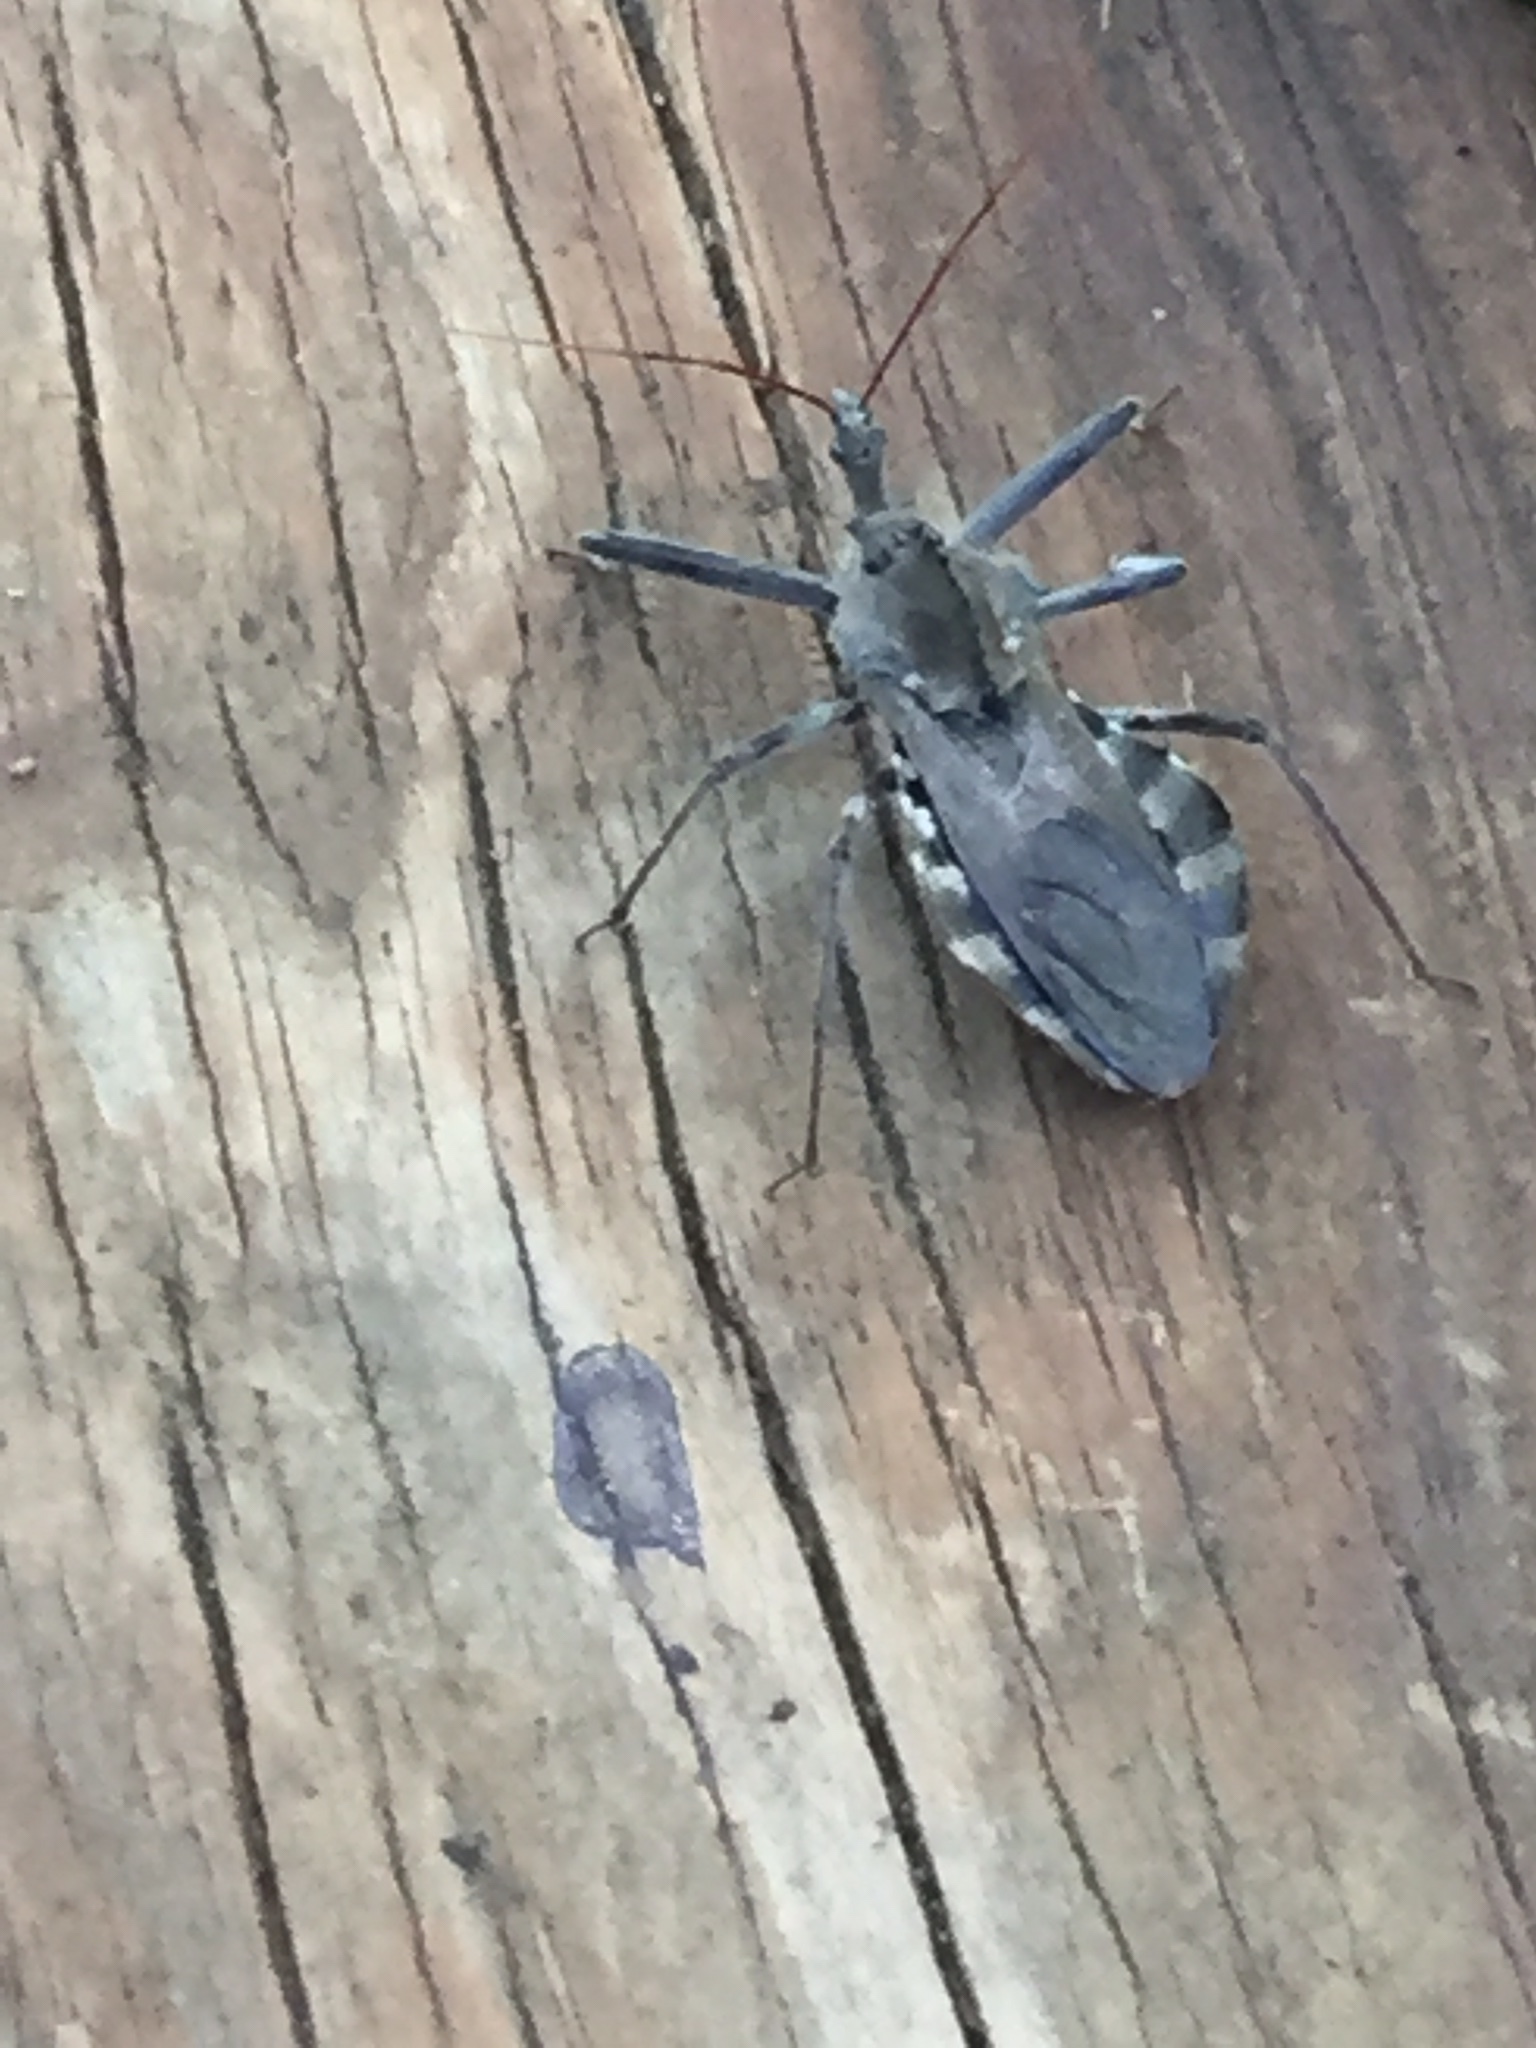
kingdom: Animalia
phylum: Arthropoda
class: Insecta
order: Hemiptera
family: Reduviidae
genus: Arilus
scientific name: Arilus cristatus
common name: North american wheel bug
